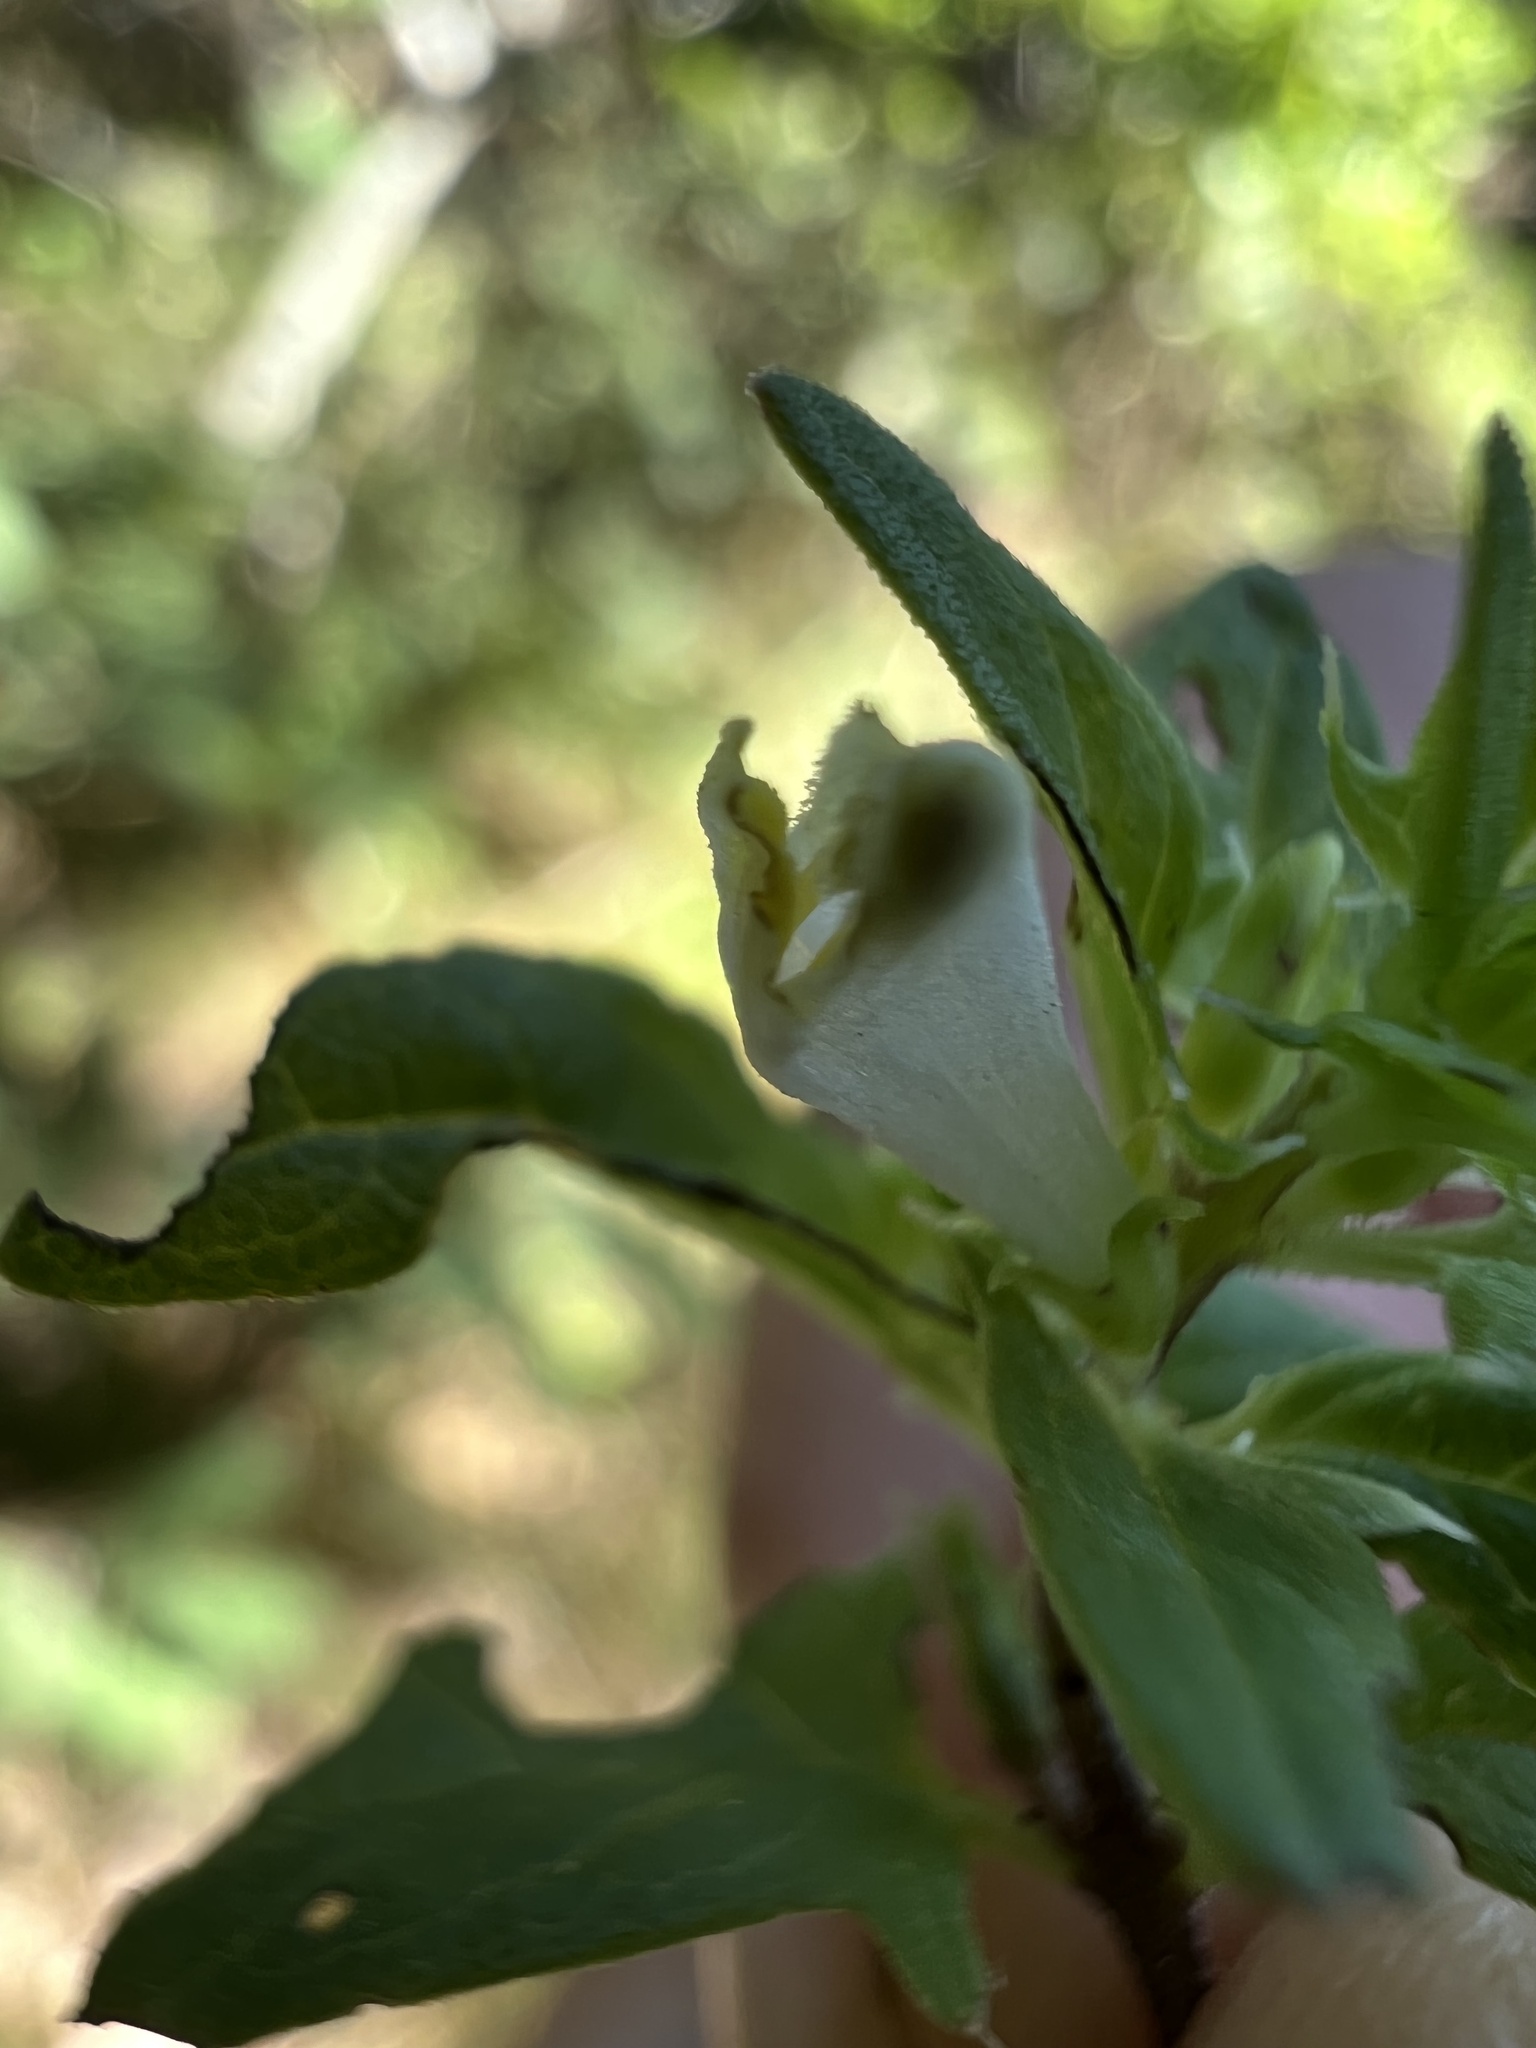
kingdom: Plantae
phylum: Tracheophyta
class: Magnoliopsida
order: Lamiales
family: Orobanchaceae
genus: Melampyrum
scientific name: Melampyrum lineare
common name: American cow-wheat
